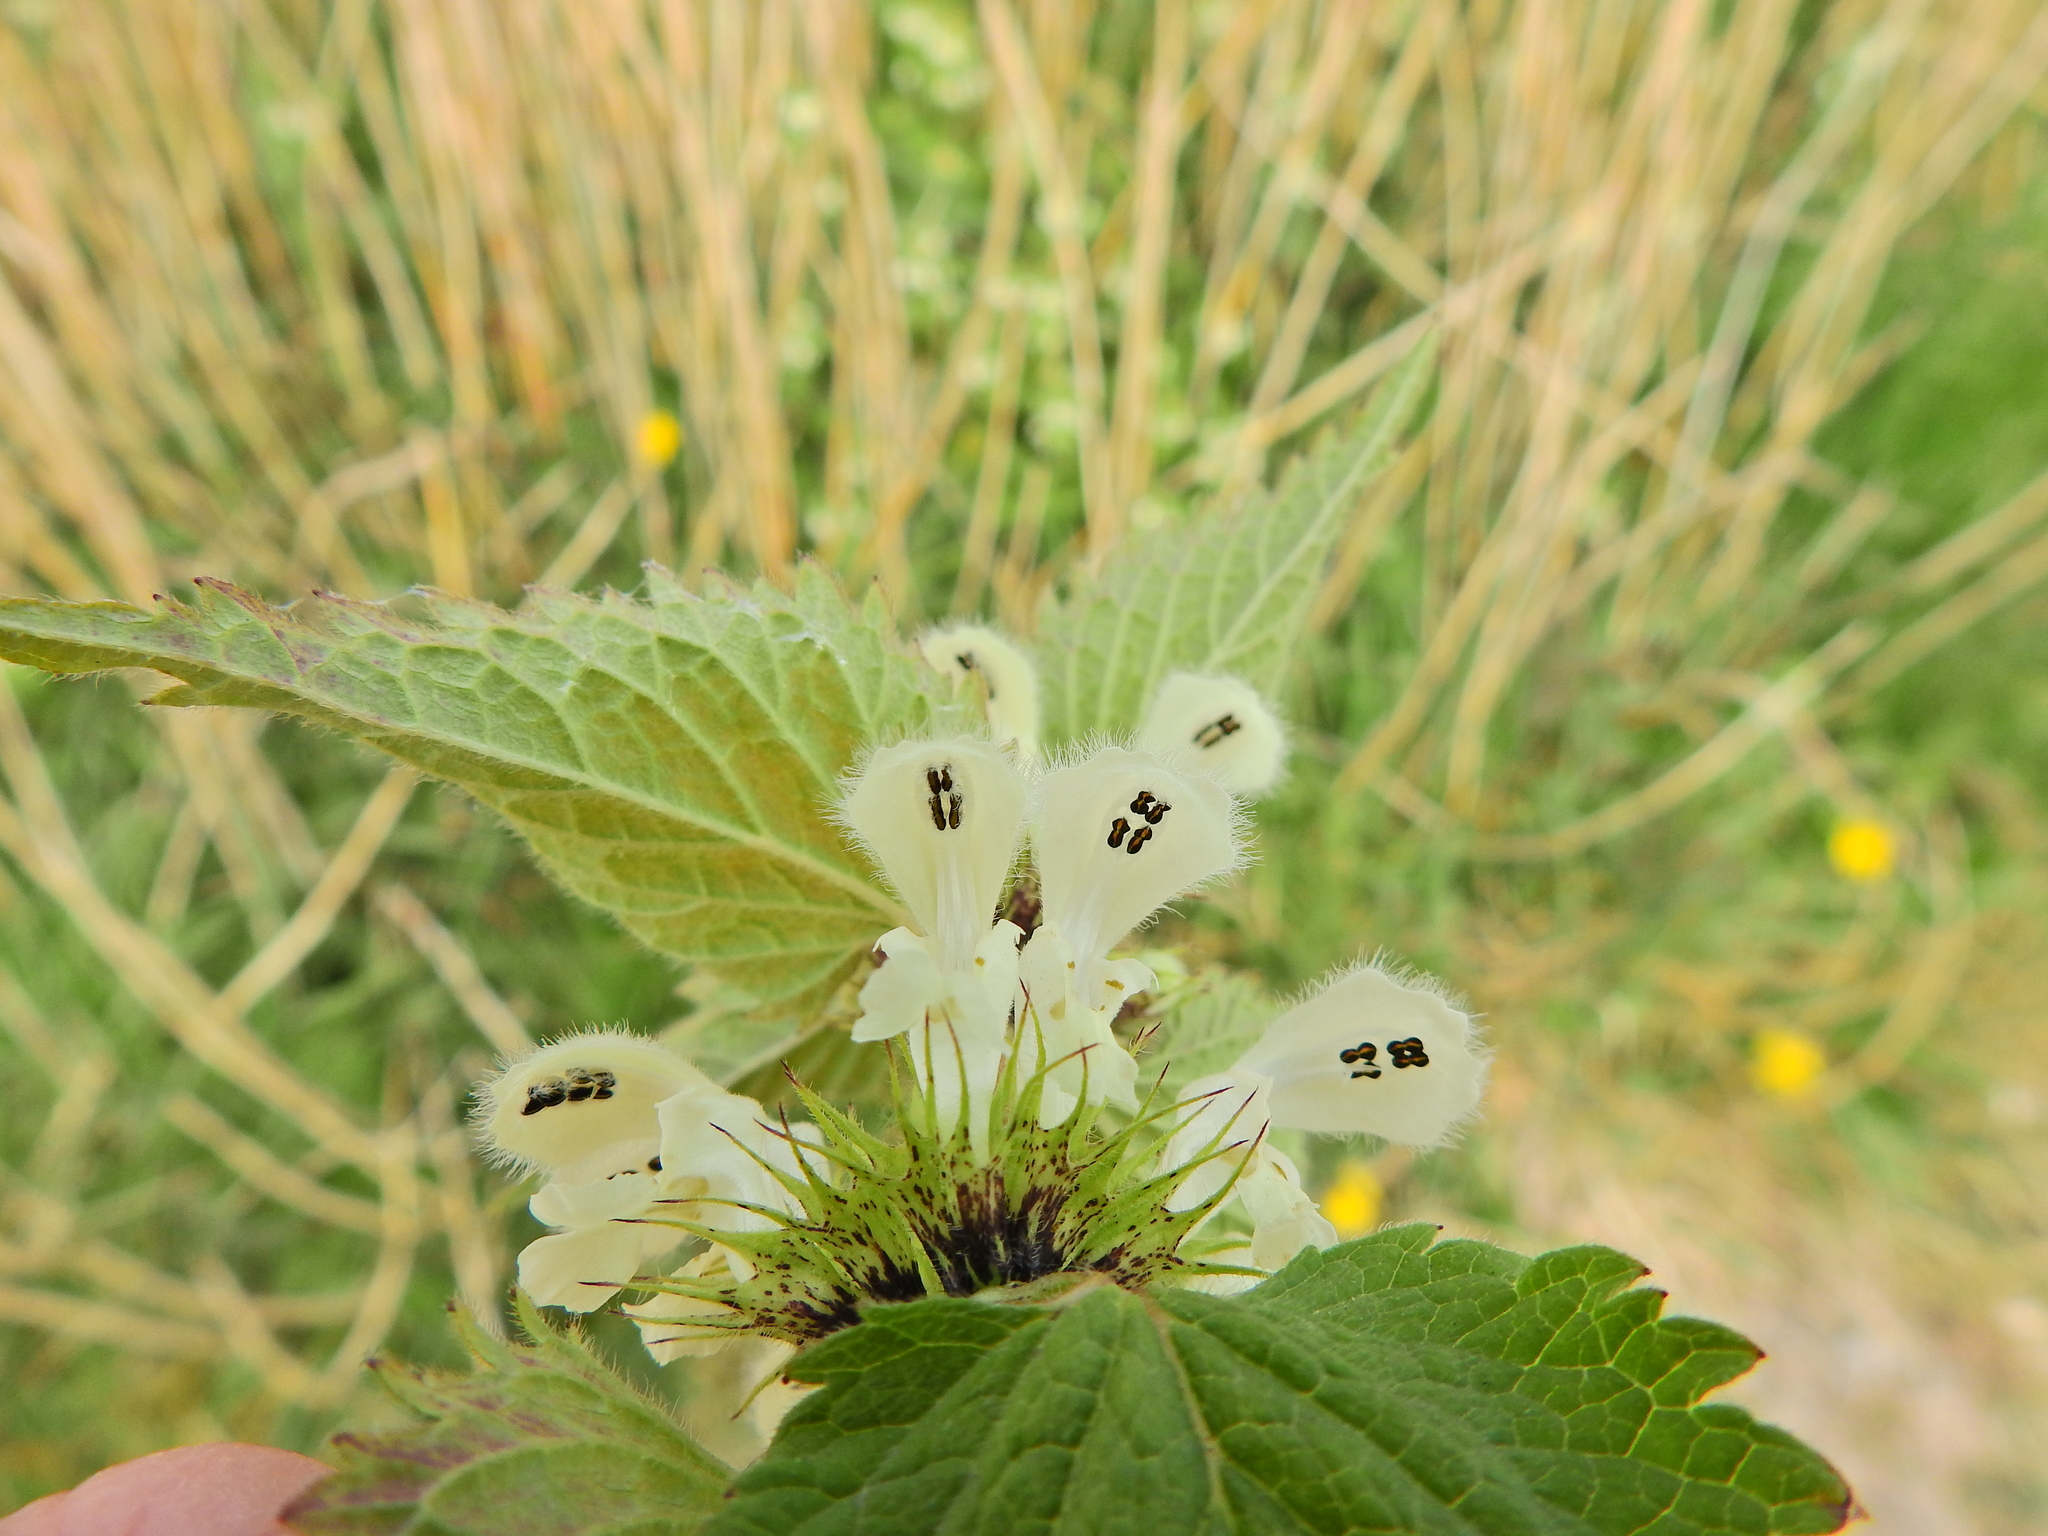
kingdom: Plantae
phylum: Tracheophyta
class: Magnoliopsida
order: Lamiales
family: Lamiaceae
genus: Lamium
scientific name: Lamium album
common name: White dead-nettle
